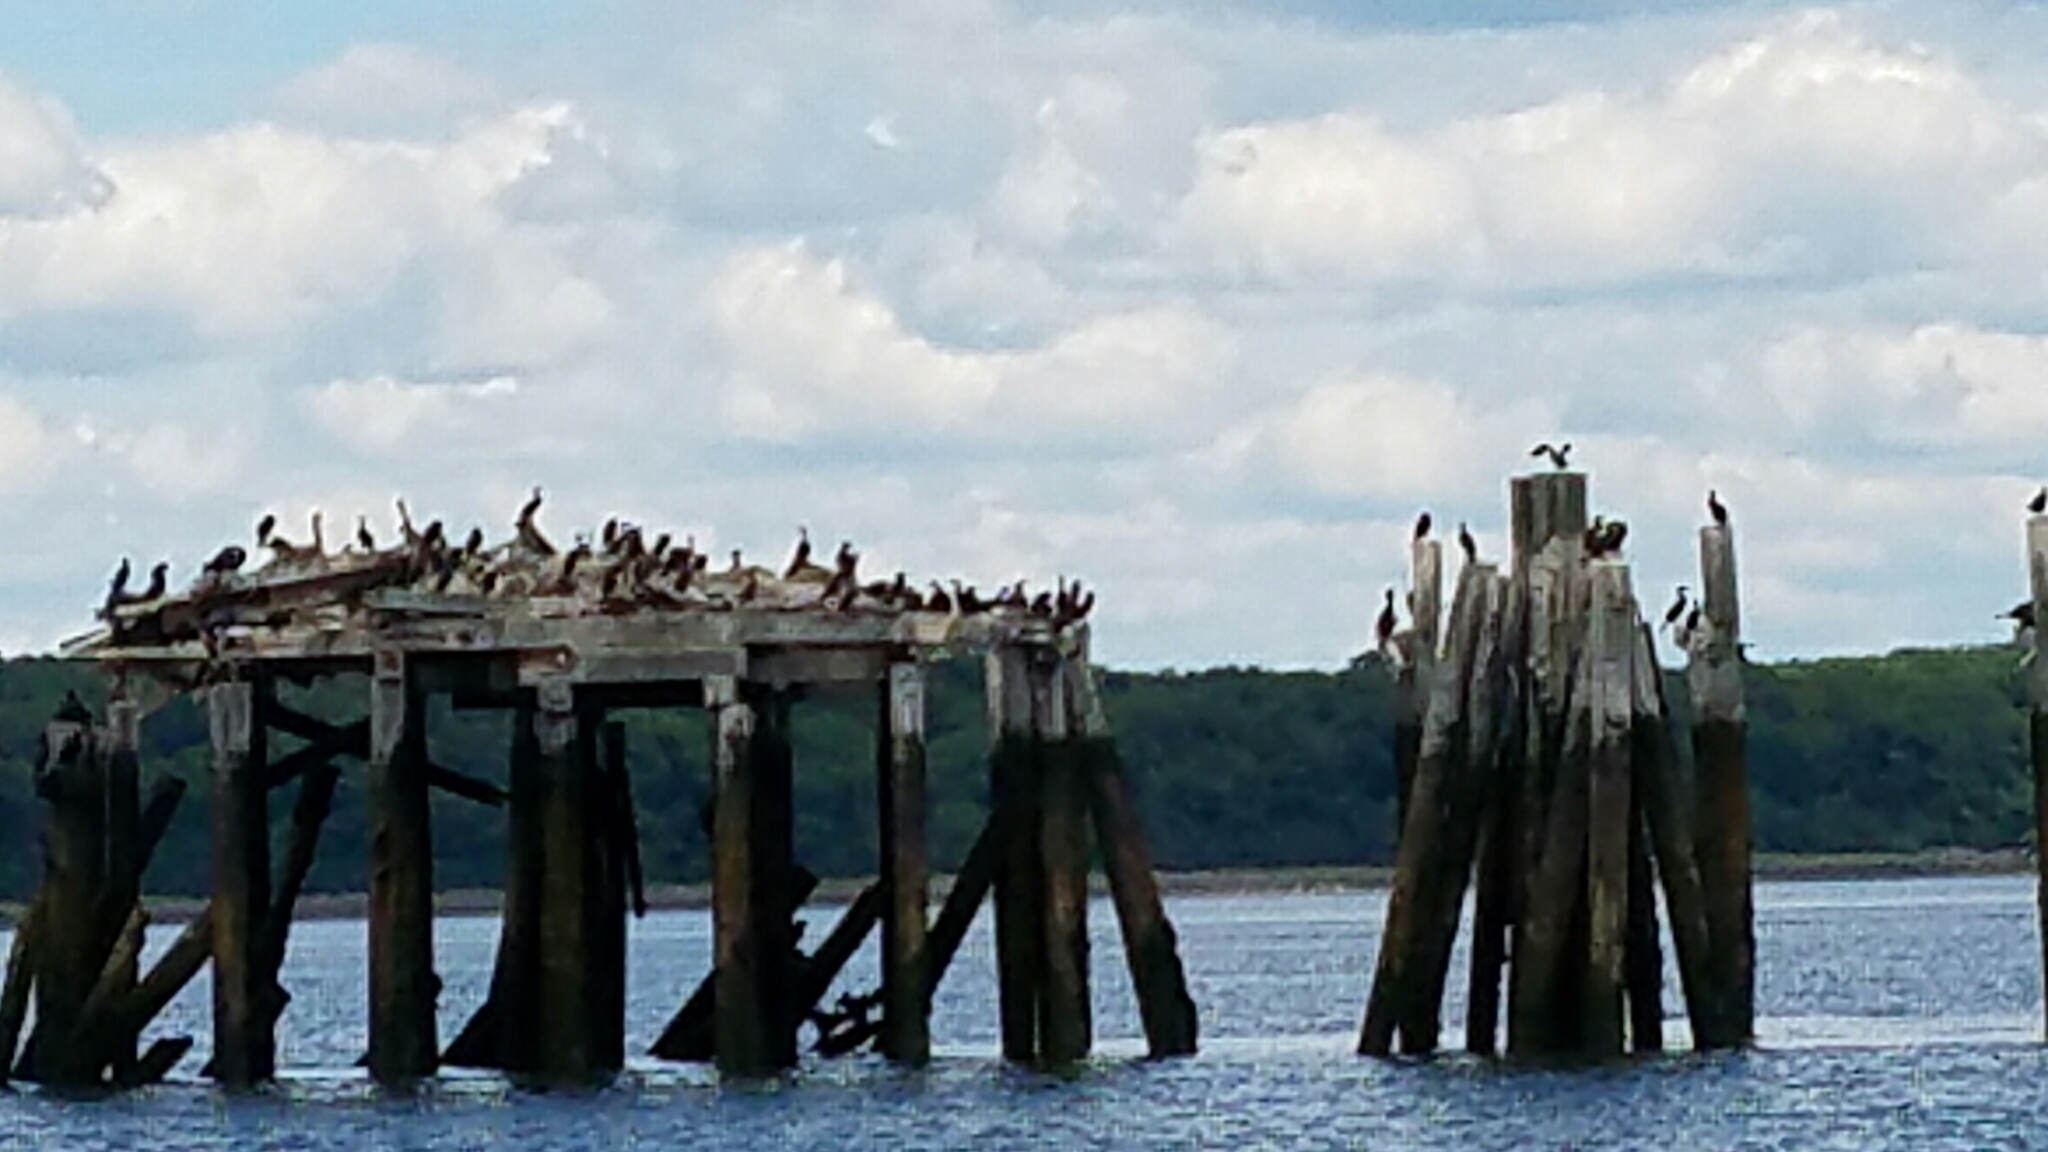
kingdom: Animalia
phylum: Chordata
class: Aves
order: Suliformes
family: Phalacrocoracidae
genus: Phalacrocorax
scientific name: Phalacrocorax auritus
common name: Double-crested cormorant
